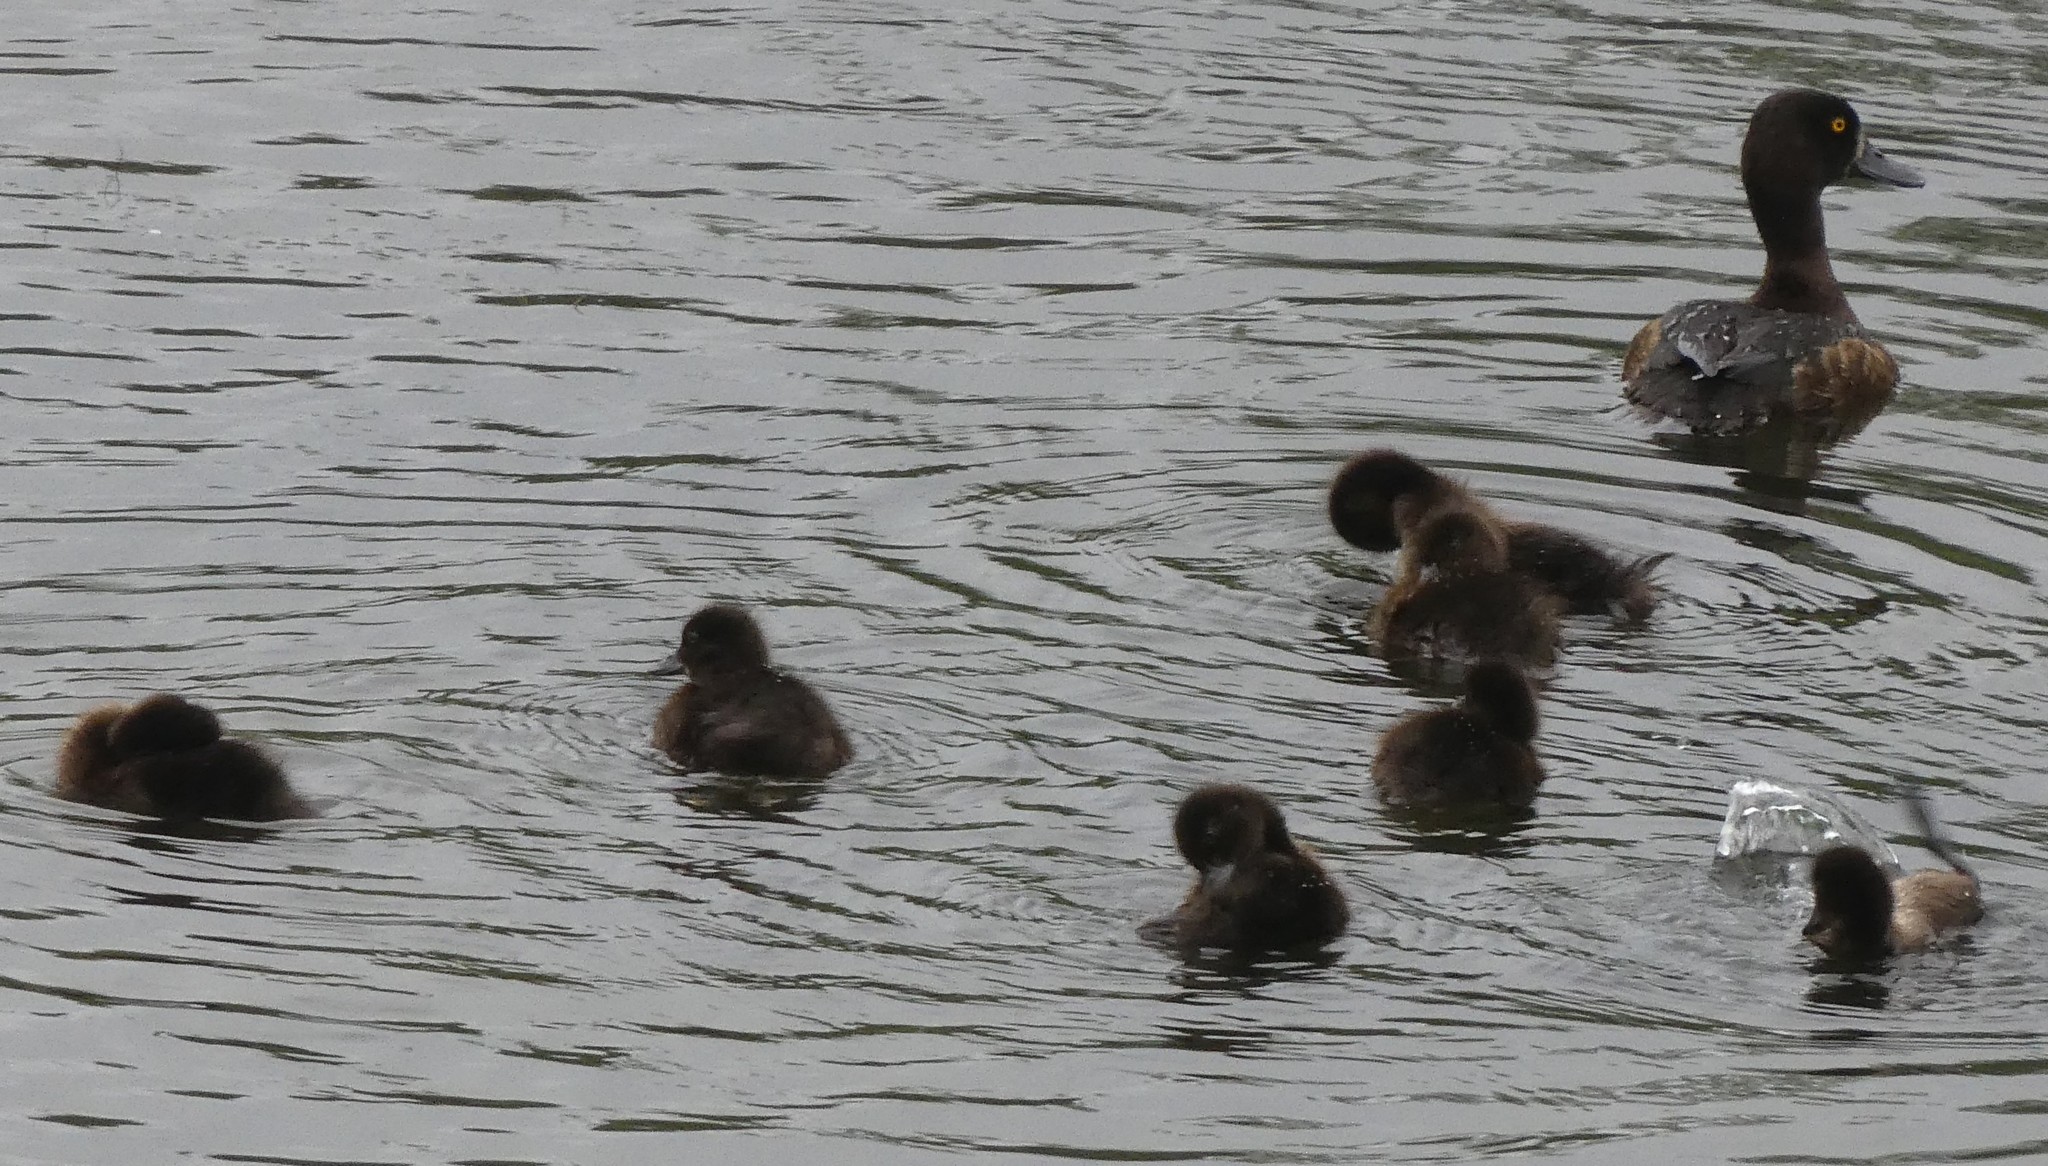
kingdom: Animalia
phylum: Chordata
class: Aves
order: Anseriformes
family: Anatidae
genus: Aythya
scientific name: Aythya fuligula
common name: Tufted duck
